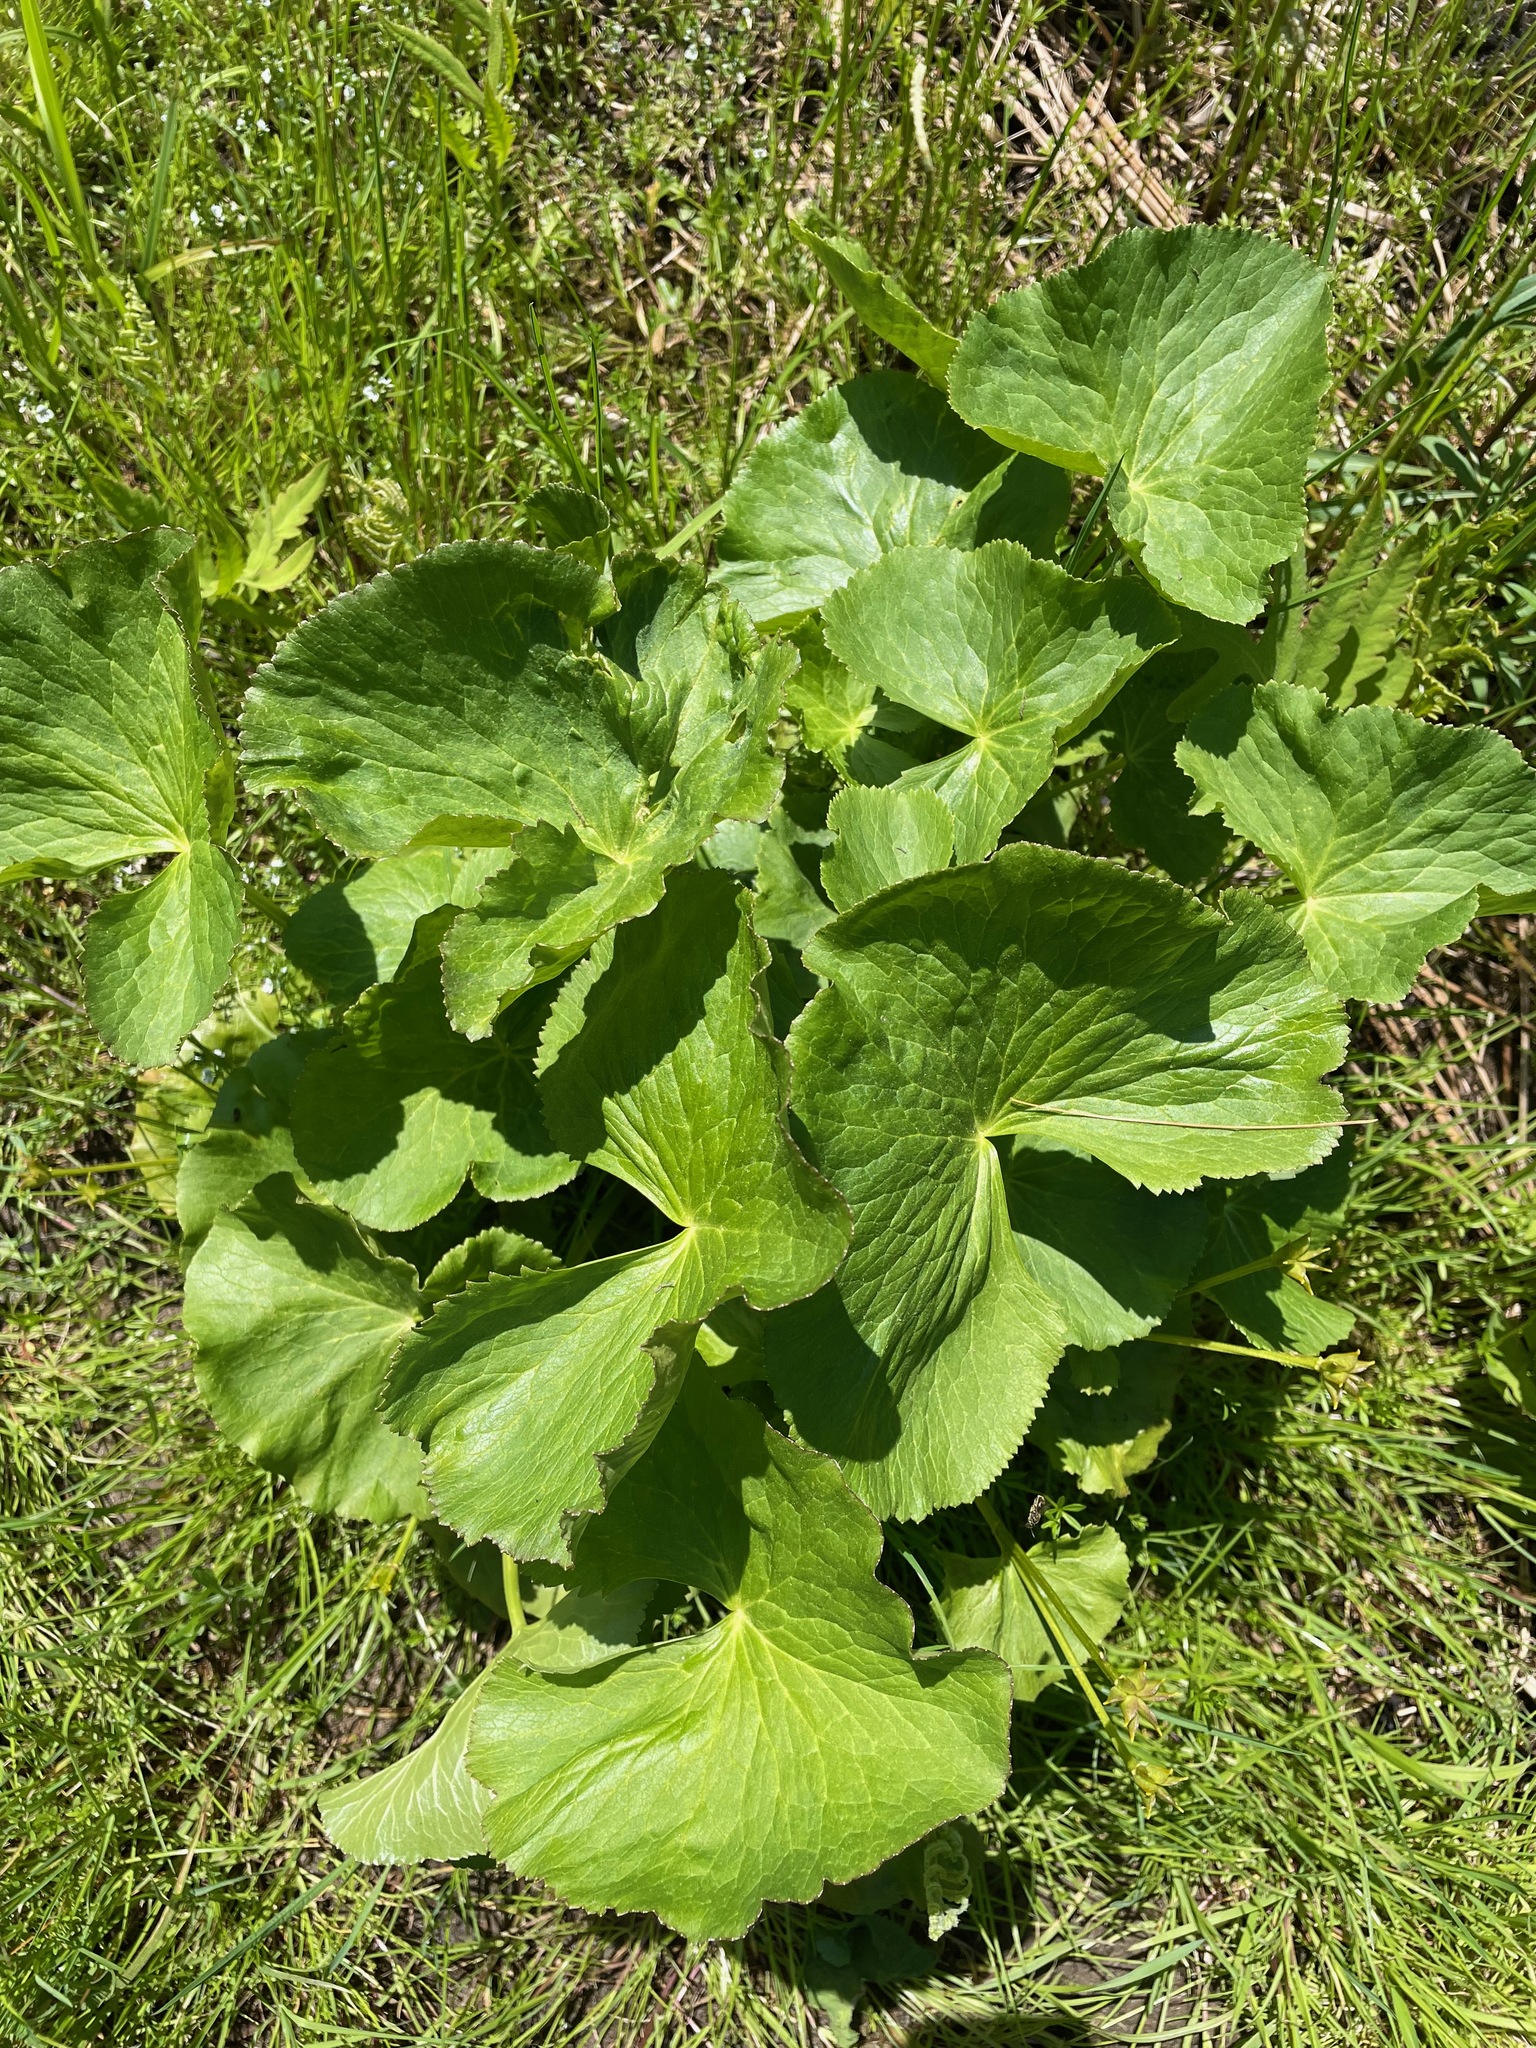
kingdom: Plantae
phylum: Tracheophyta
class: Magnoliopsida
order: Ranunculales
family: Ranunculaceae
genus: Caltha
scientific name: Caltha palustris
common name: Marsh marigold
